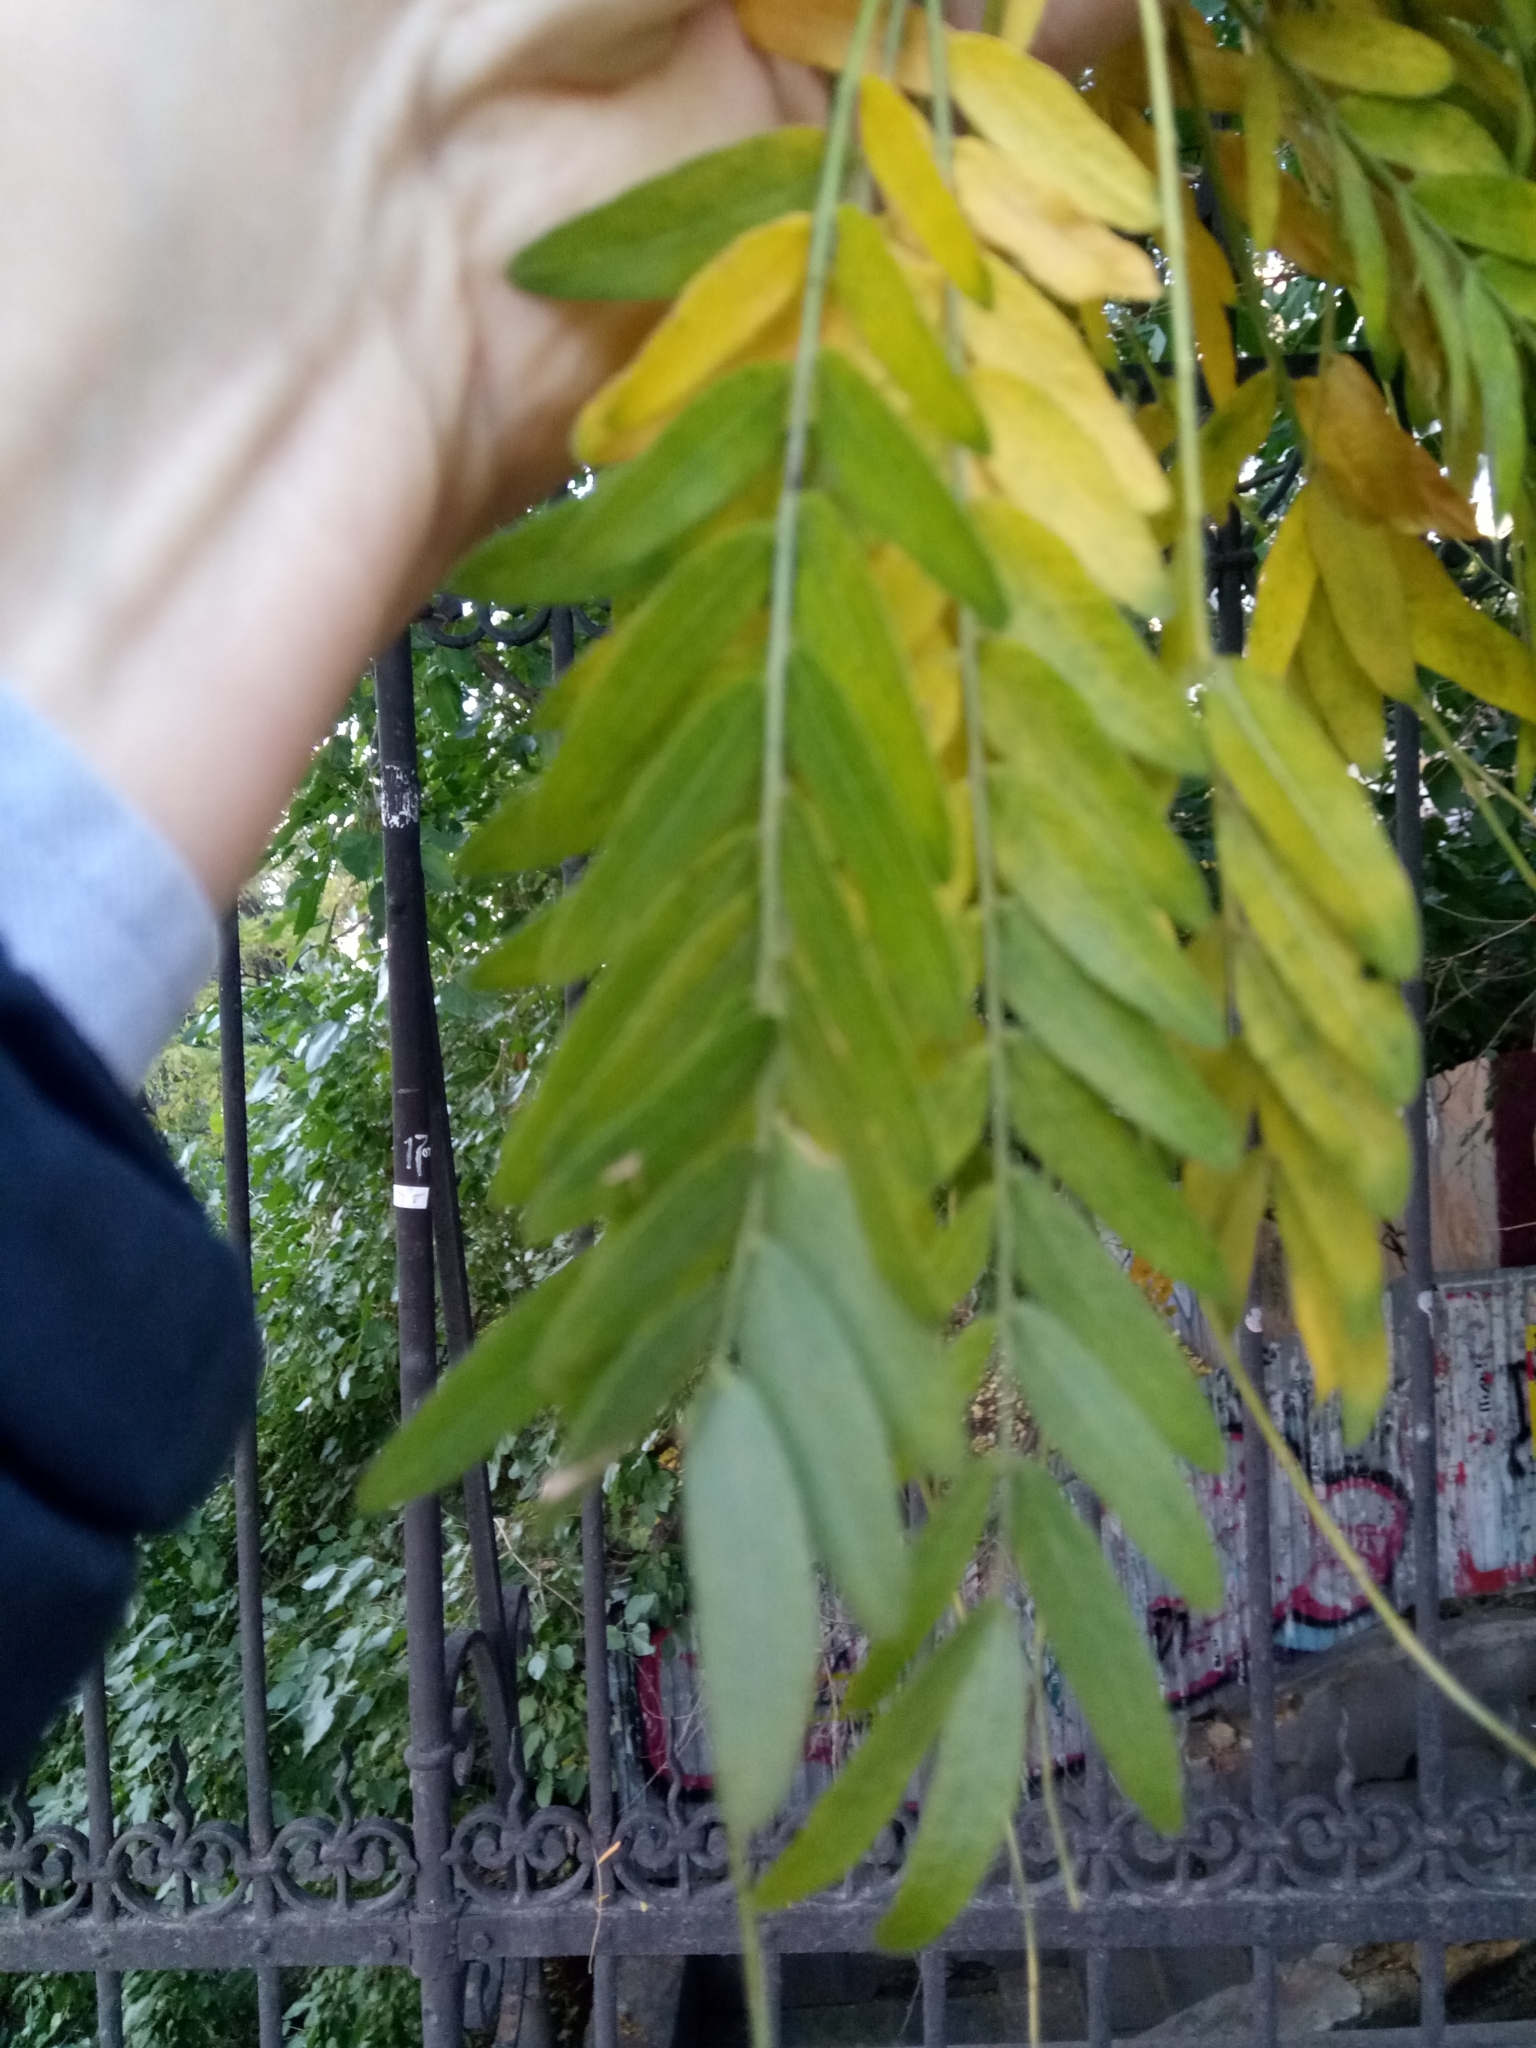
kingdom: Plantae
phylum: Tracheophyta
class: Magnoliopsida
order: Fabales
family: Fabaceae
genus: Gleditsia
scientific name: Gleditsia triacanthos
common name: Common honeylocust
